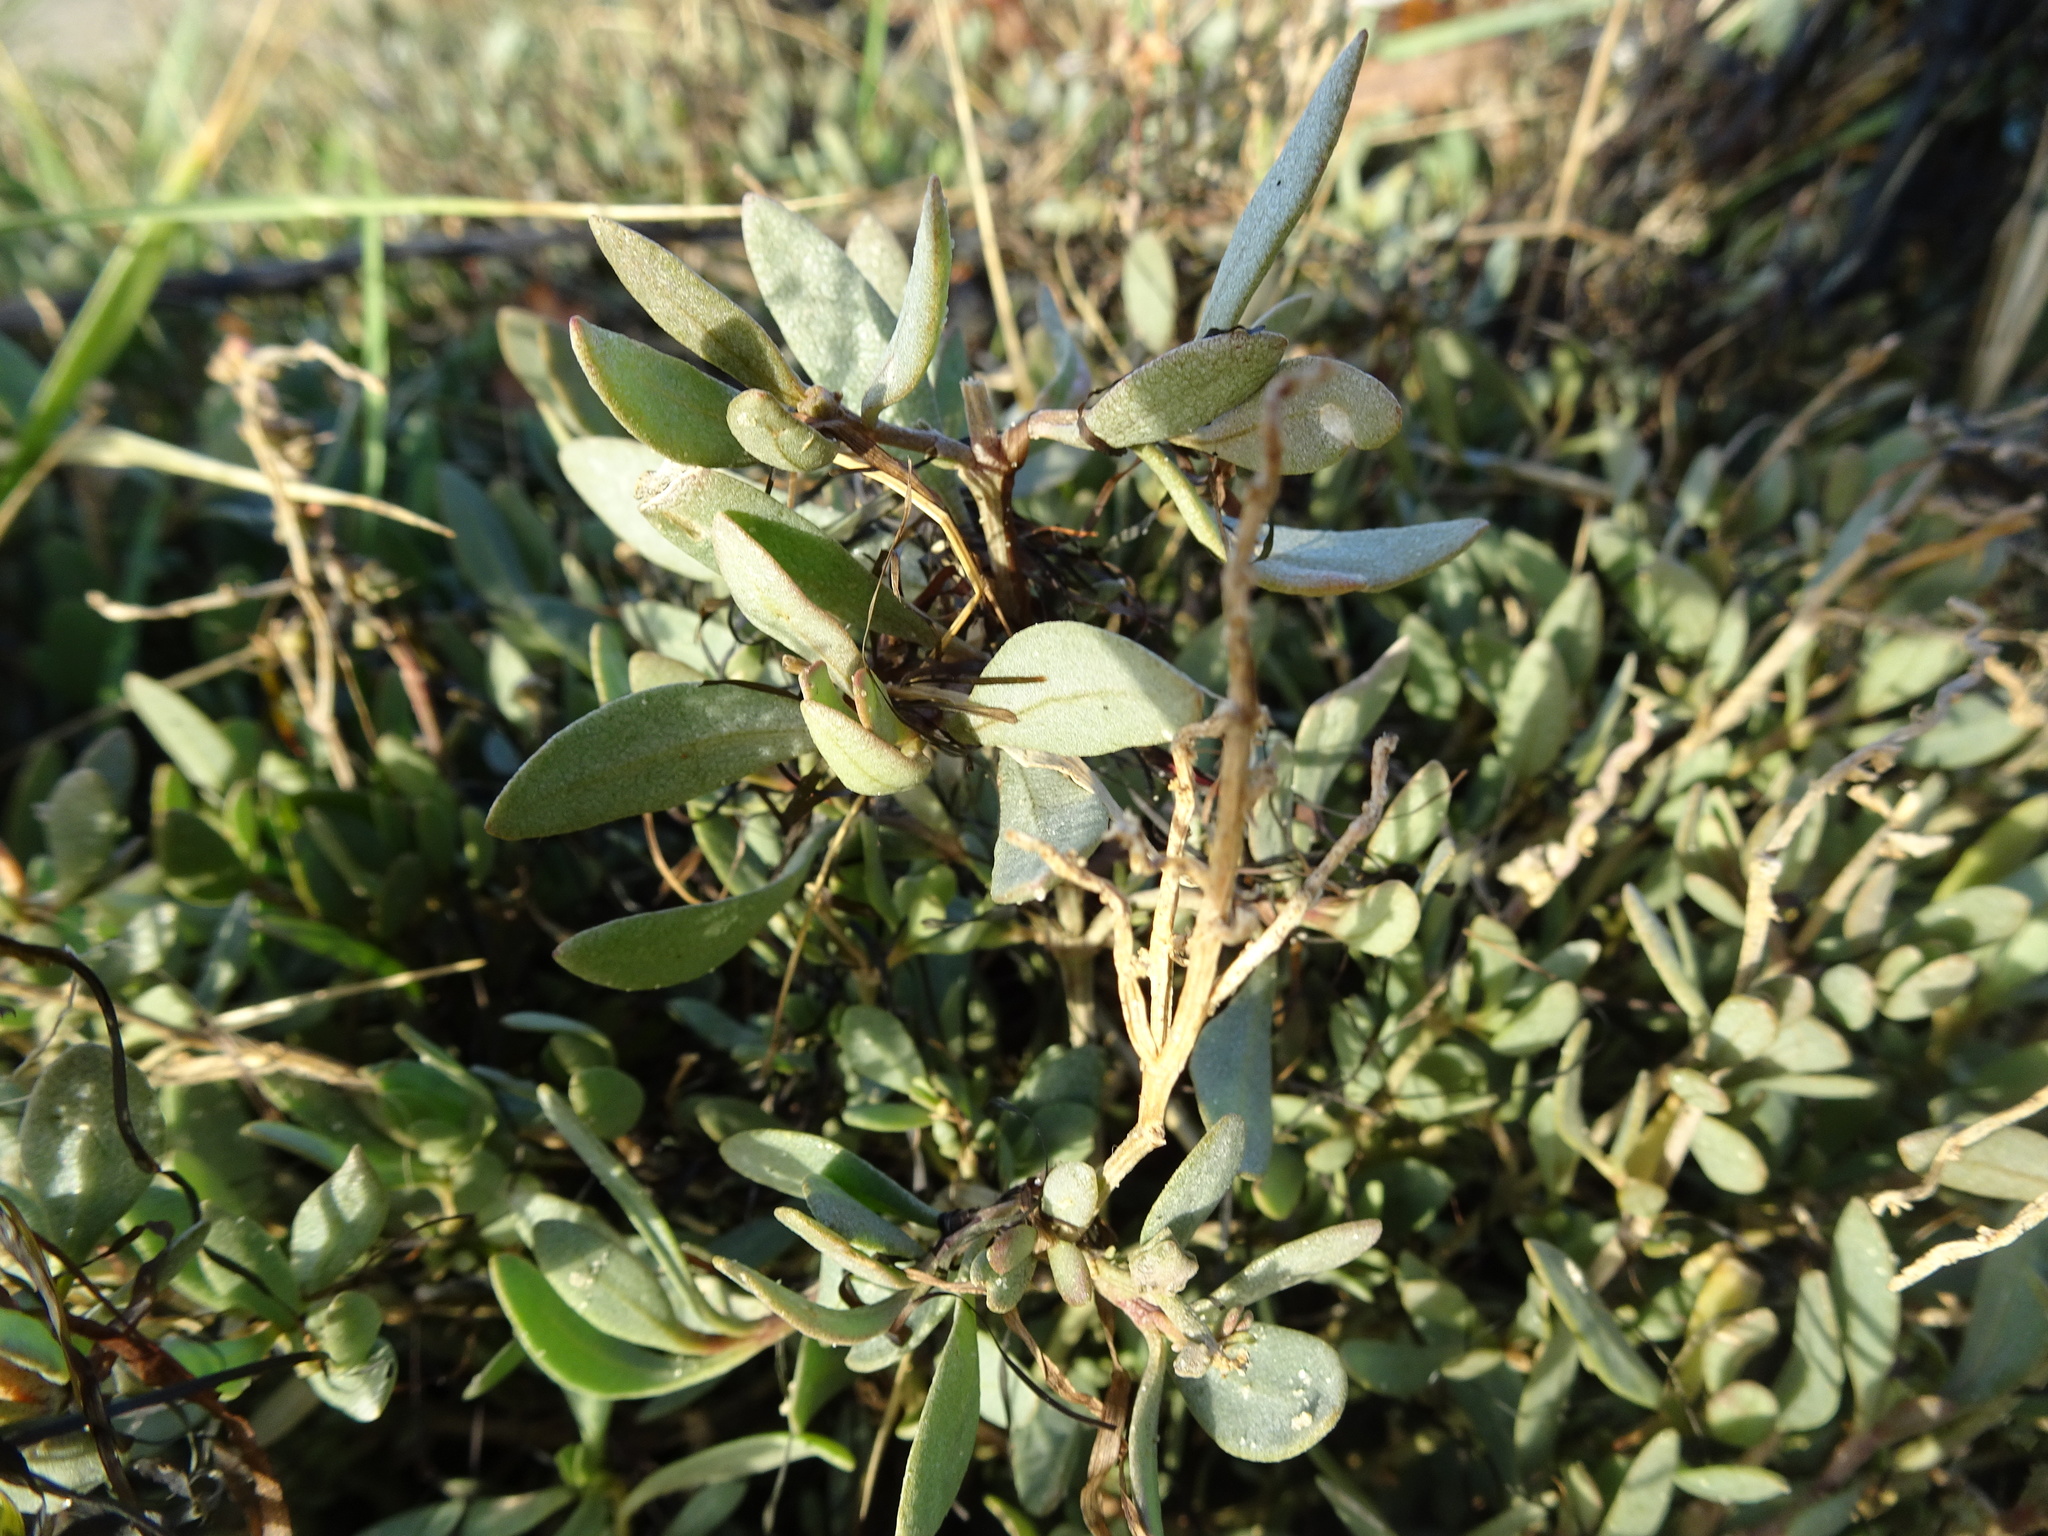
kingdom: Plantae
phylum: Tracheophyta
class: Magnoliopsida
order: Caryophyllales
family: Amaranthaceae
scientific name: Amaranthaceae
